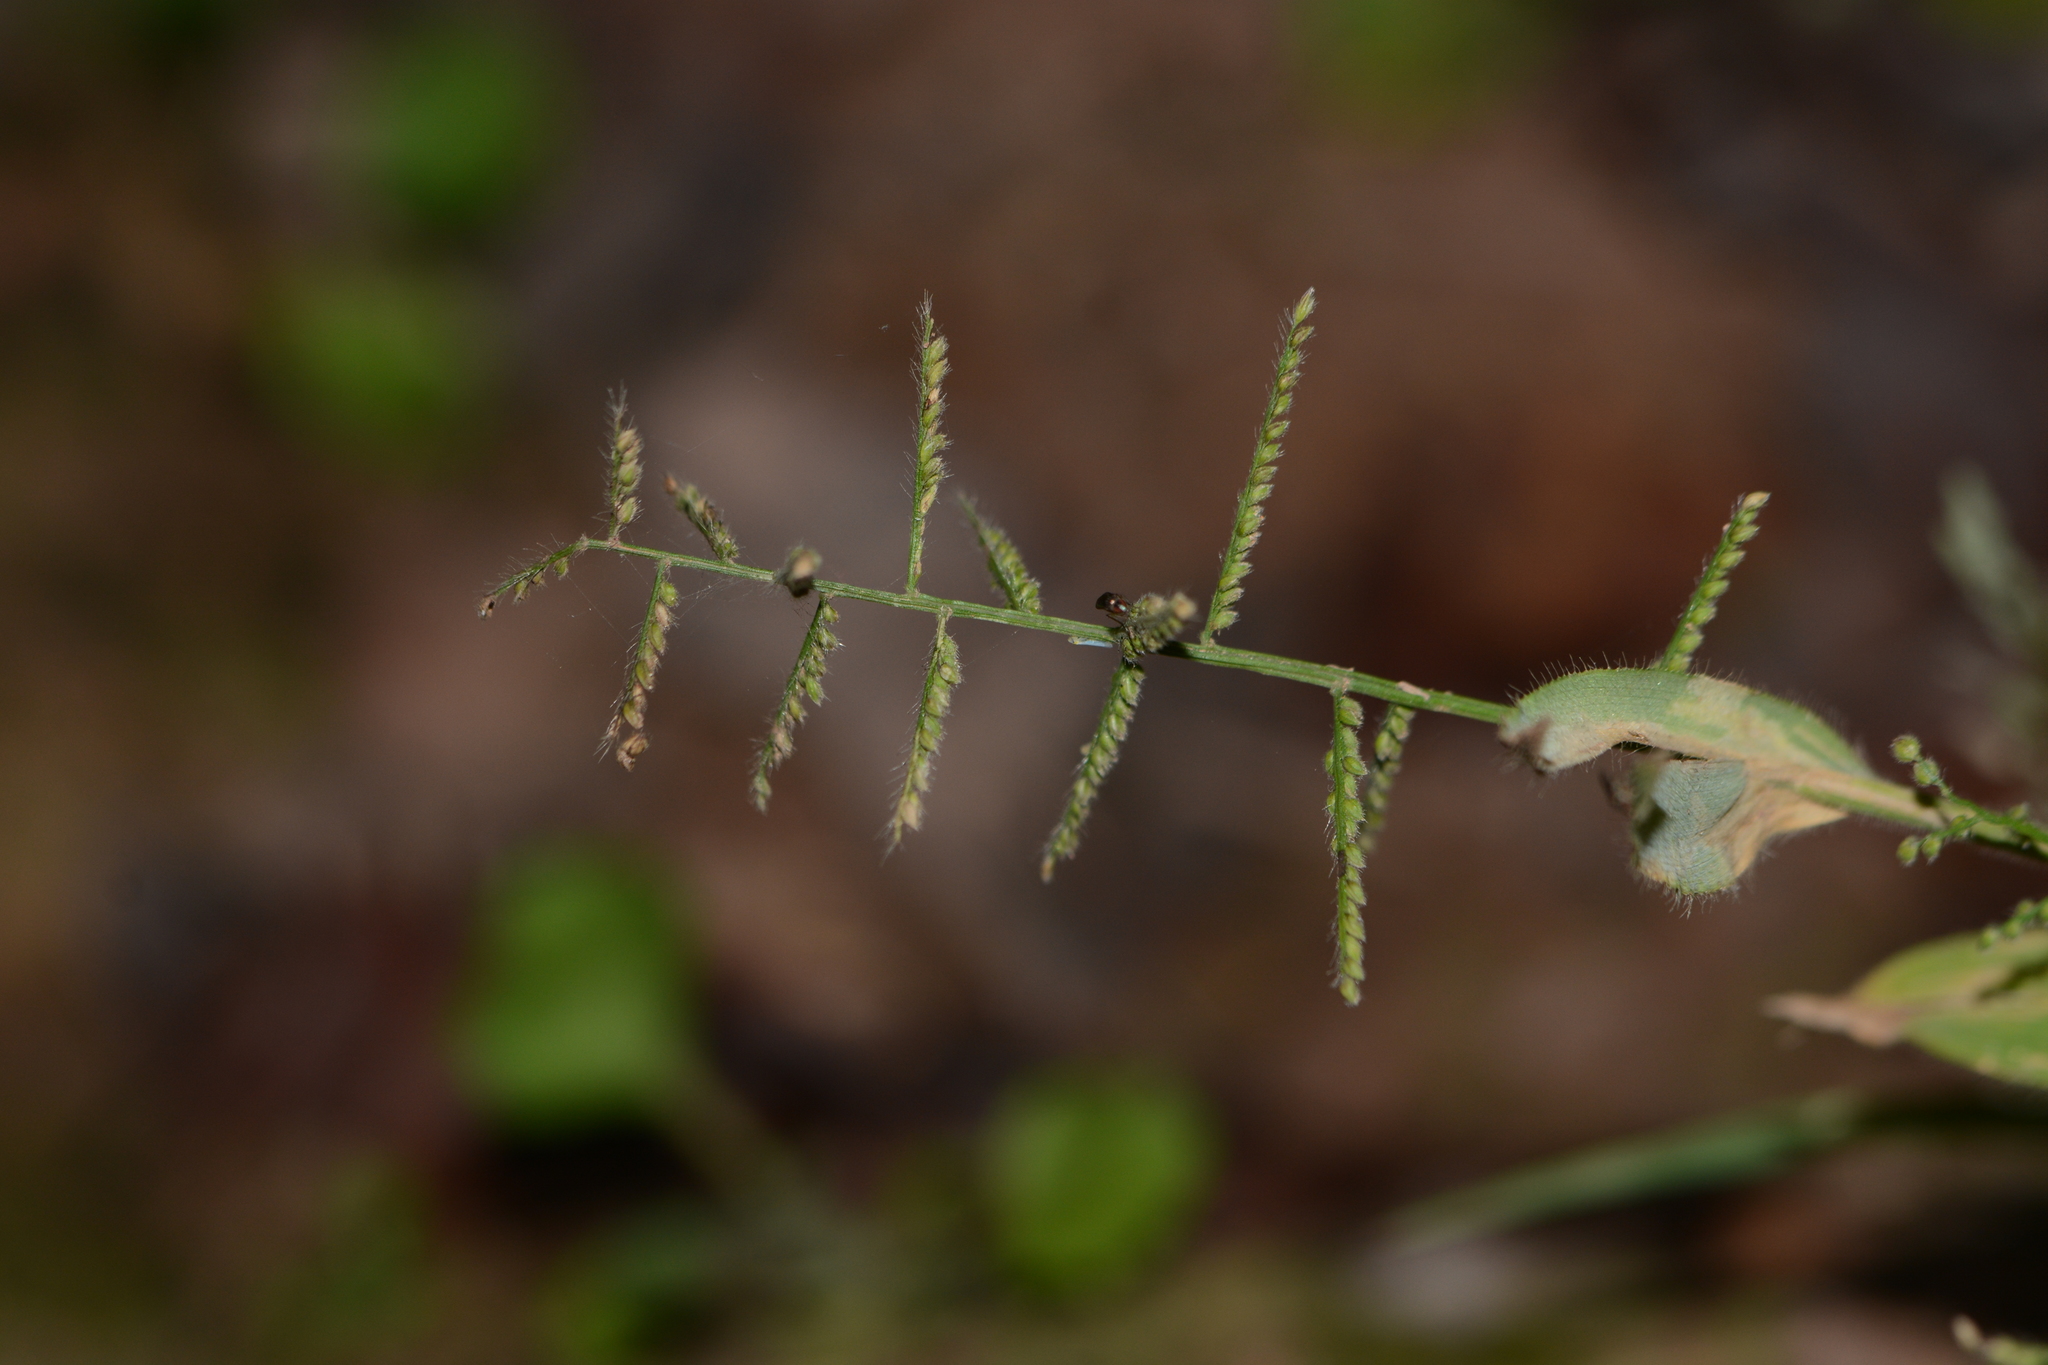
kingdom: Plantae
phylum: Tracheophyta
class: Liliopsida
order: Poales
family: Poaceae
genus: Paspalum
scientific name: Paspalum canarae
